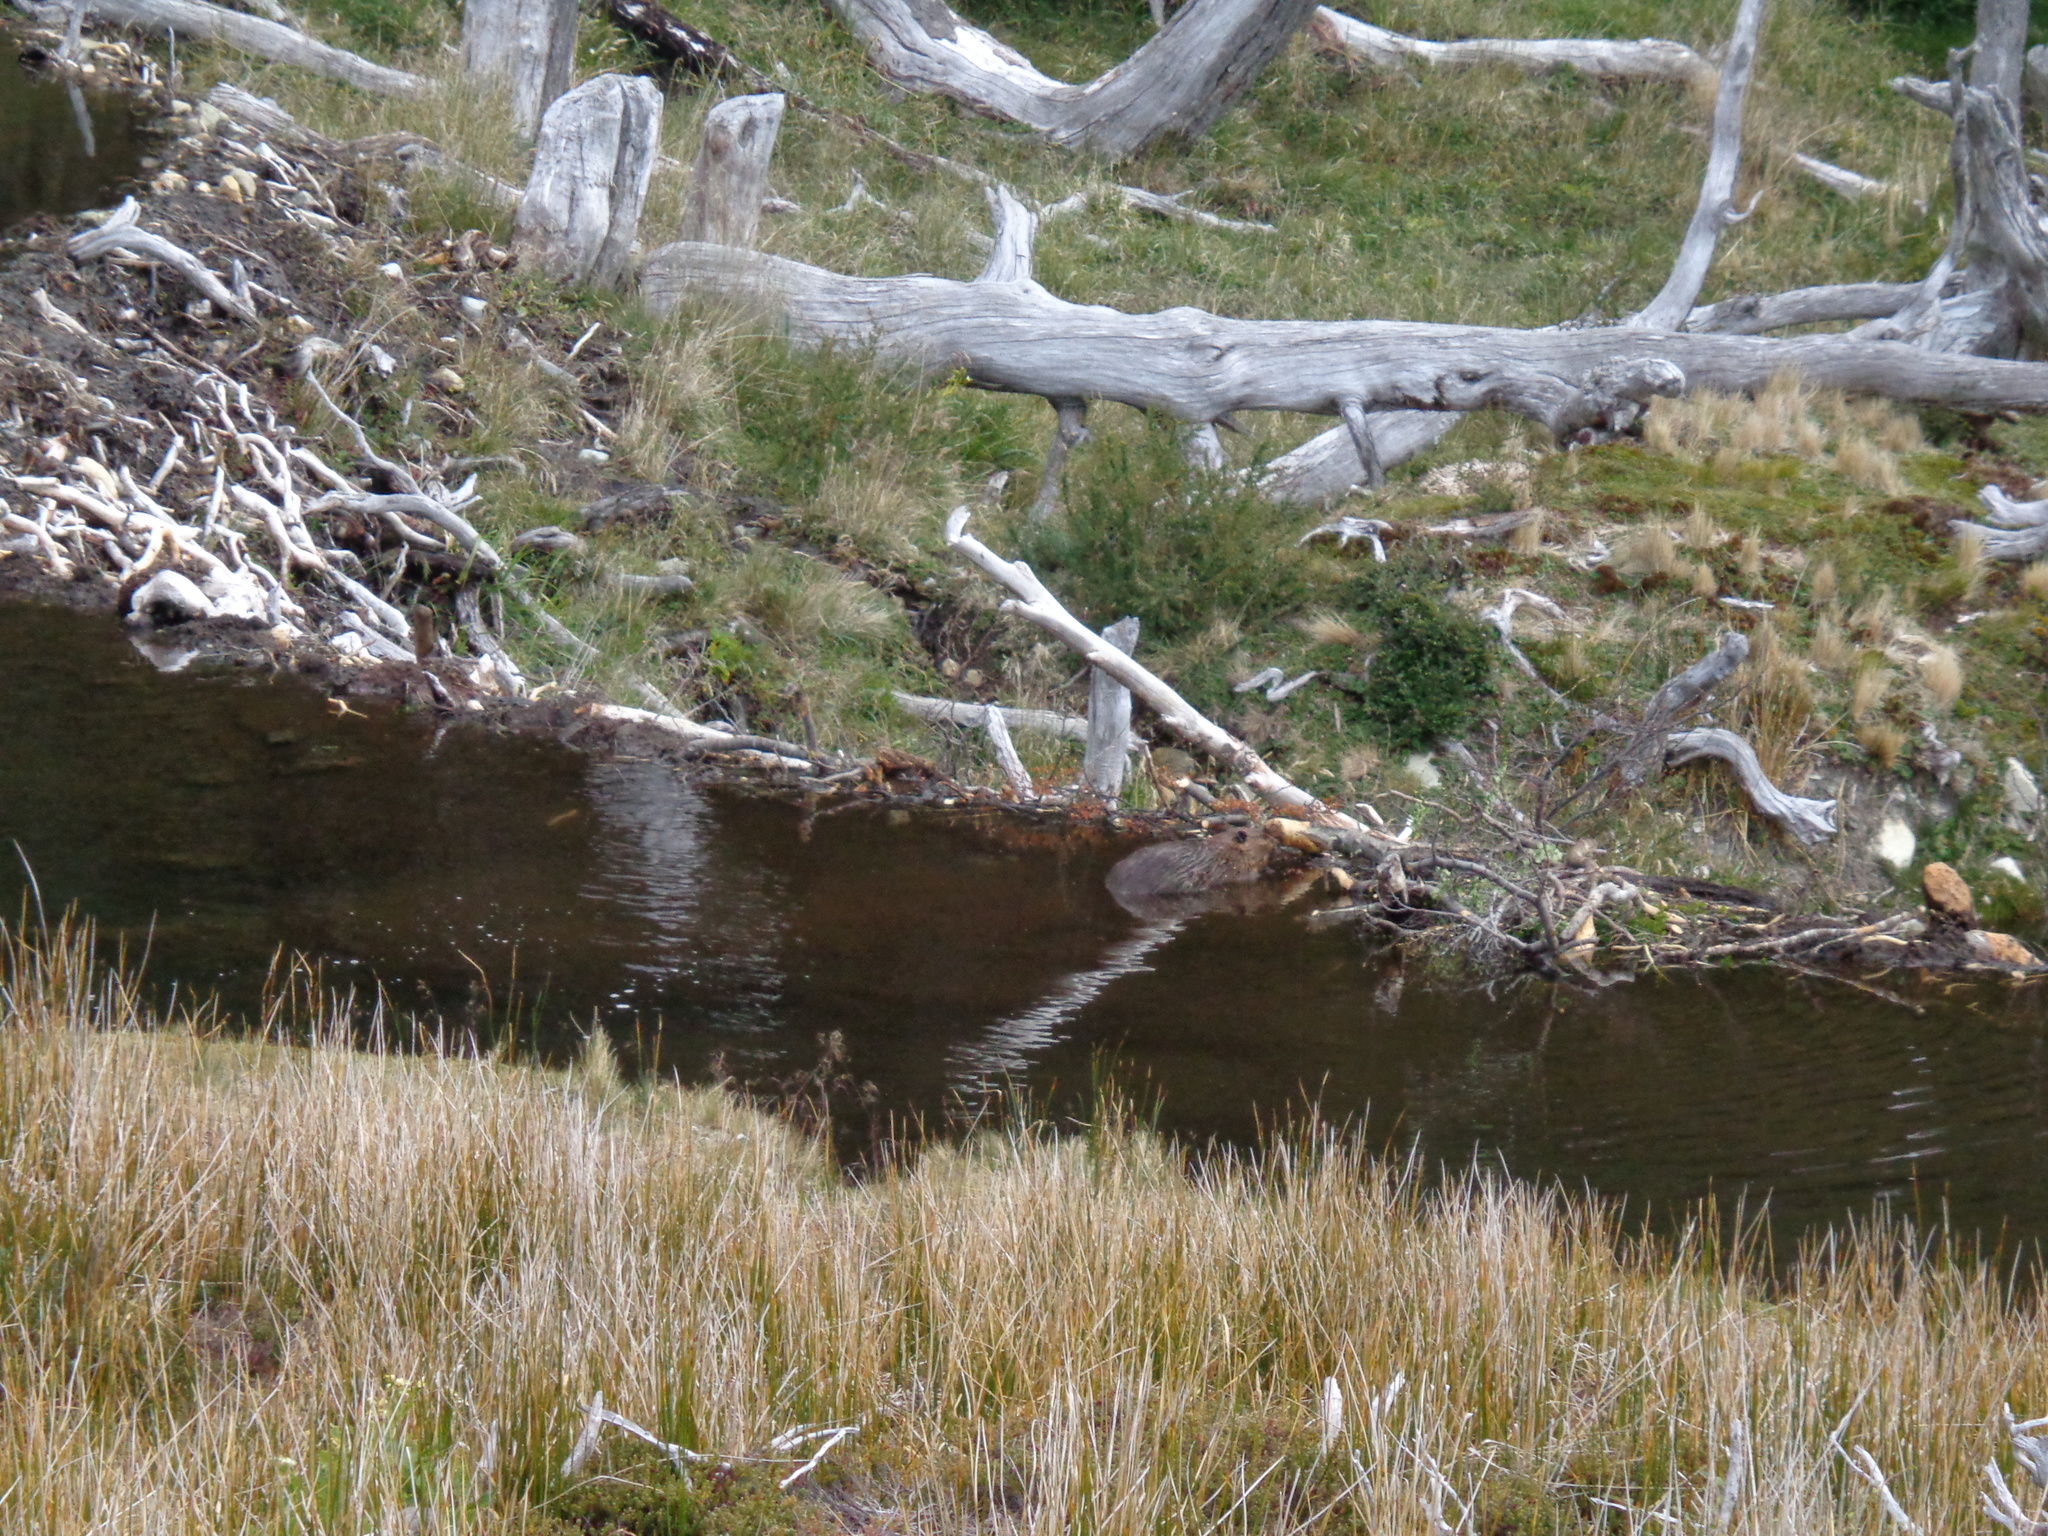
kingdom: Animalia
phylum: Chordata
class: Mammalia
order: Rodentia
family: Castoridae
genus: Castor
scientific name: Castor canadensis
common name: American beaver
